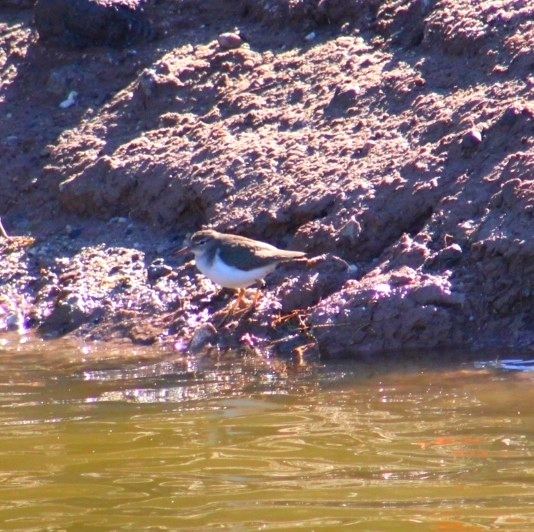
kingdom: Animalia
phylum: Chordata
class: Aves
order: Charadriiformes
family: Scolopacidae
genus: Actitis
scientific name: Actitis macularius
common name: Spotted sandpiper
